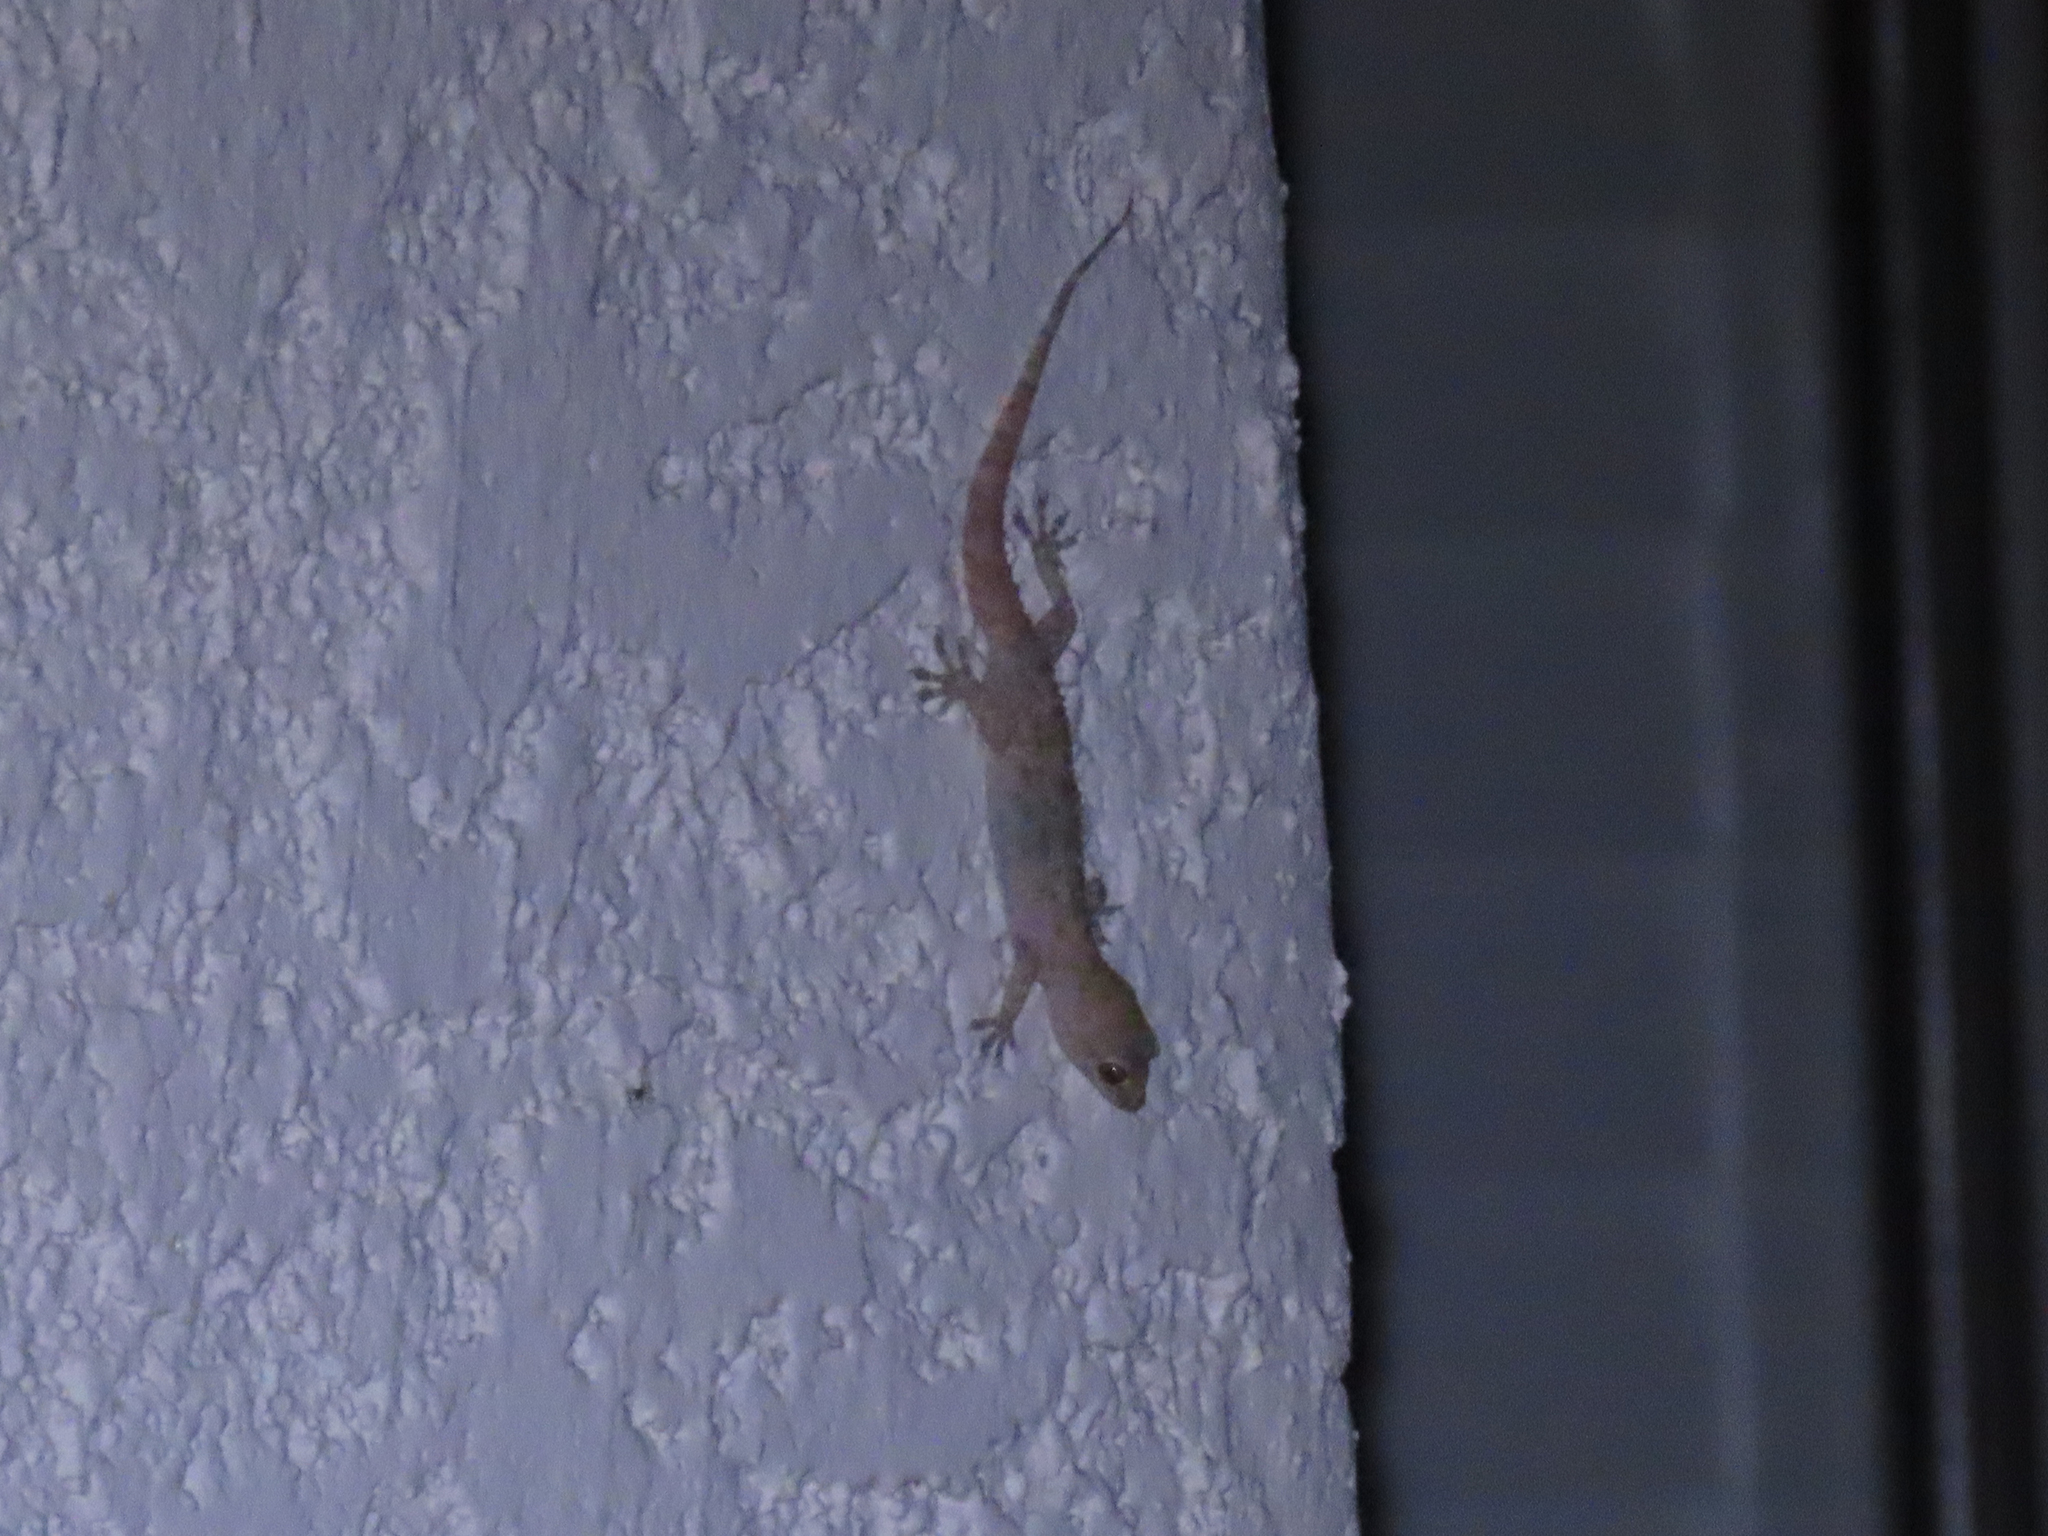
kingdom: Animalia
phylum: Chordata
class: Squamata
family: Gekkonidae
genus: Hemidactylus
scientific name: Hemidactylus turcicus
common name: Turkish gecko
